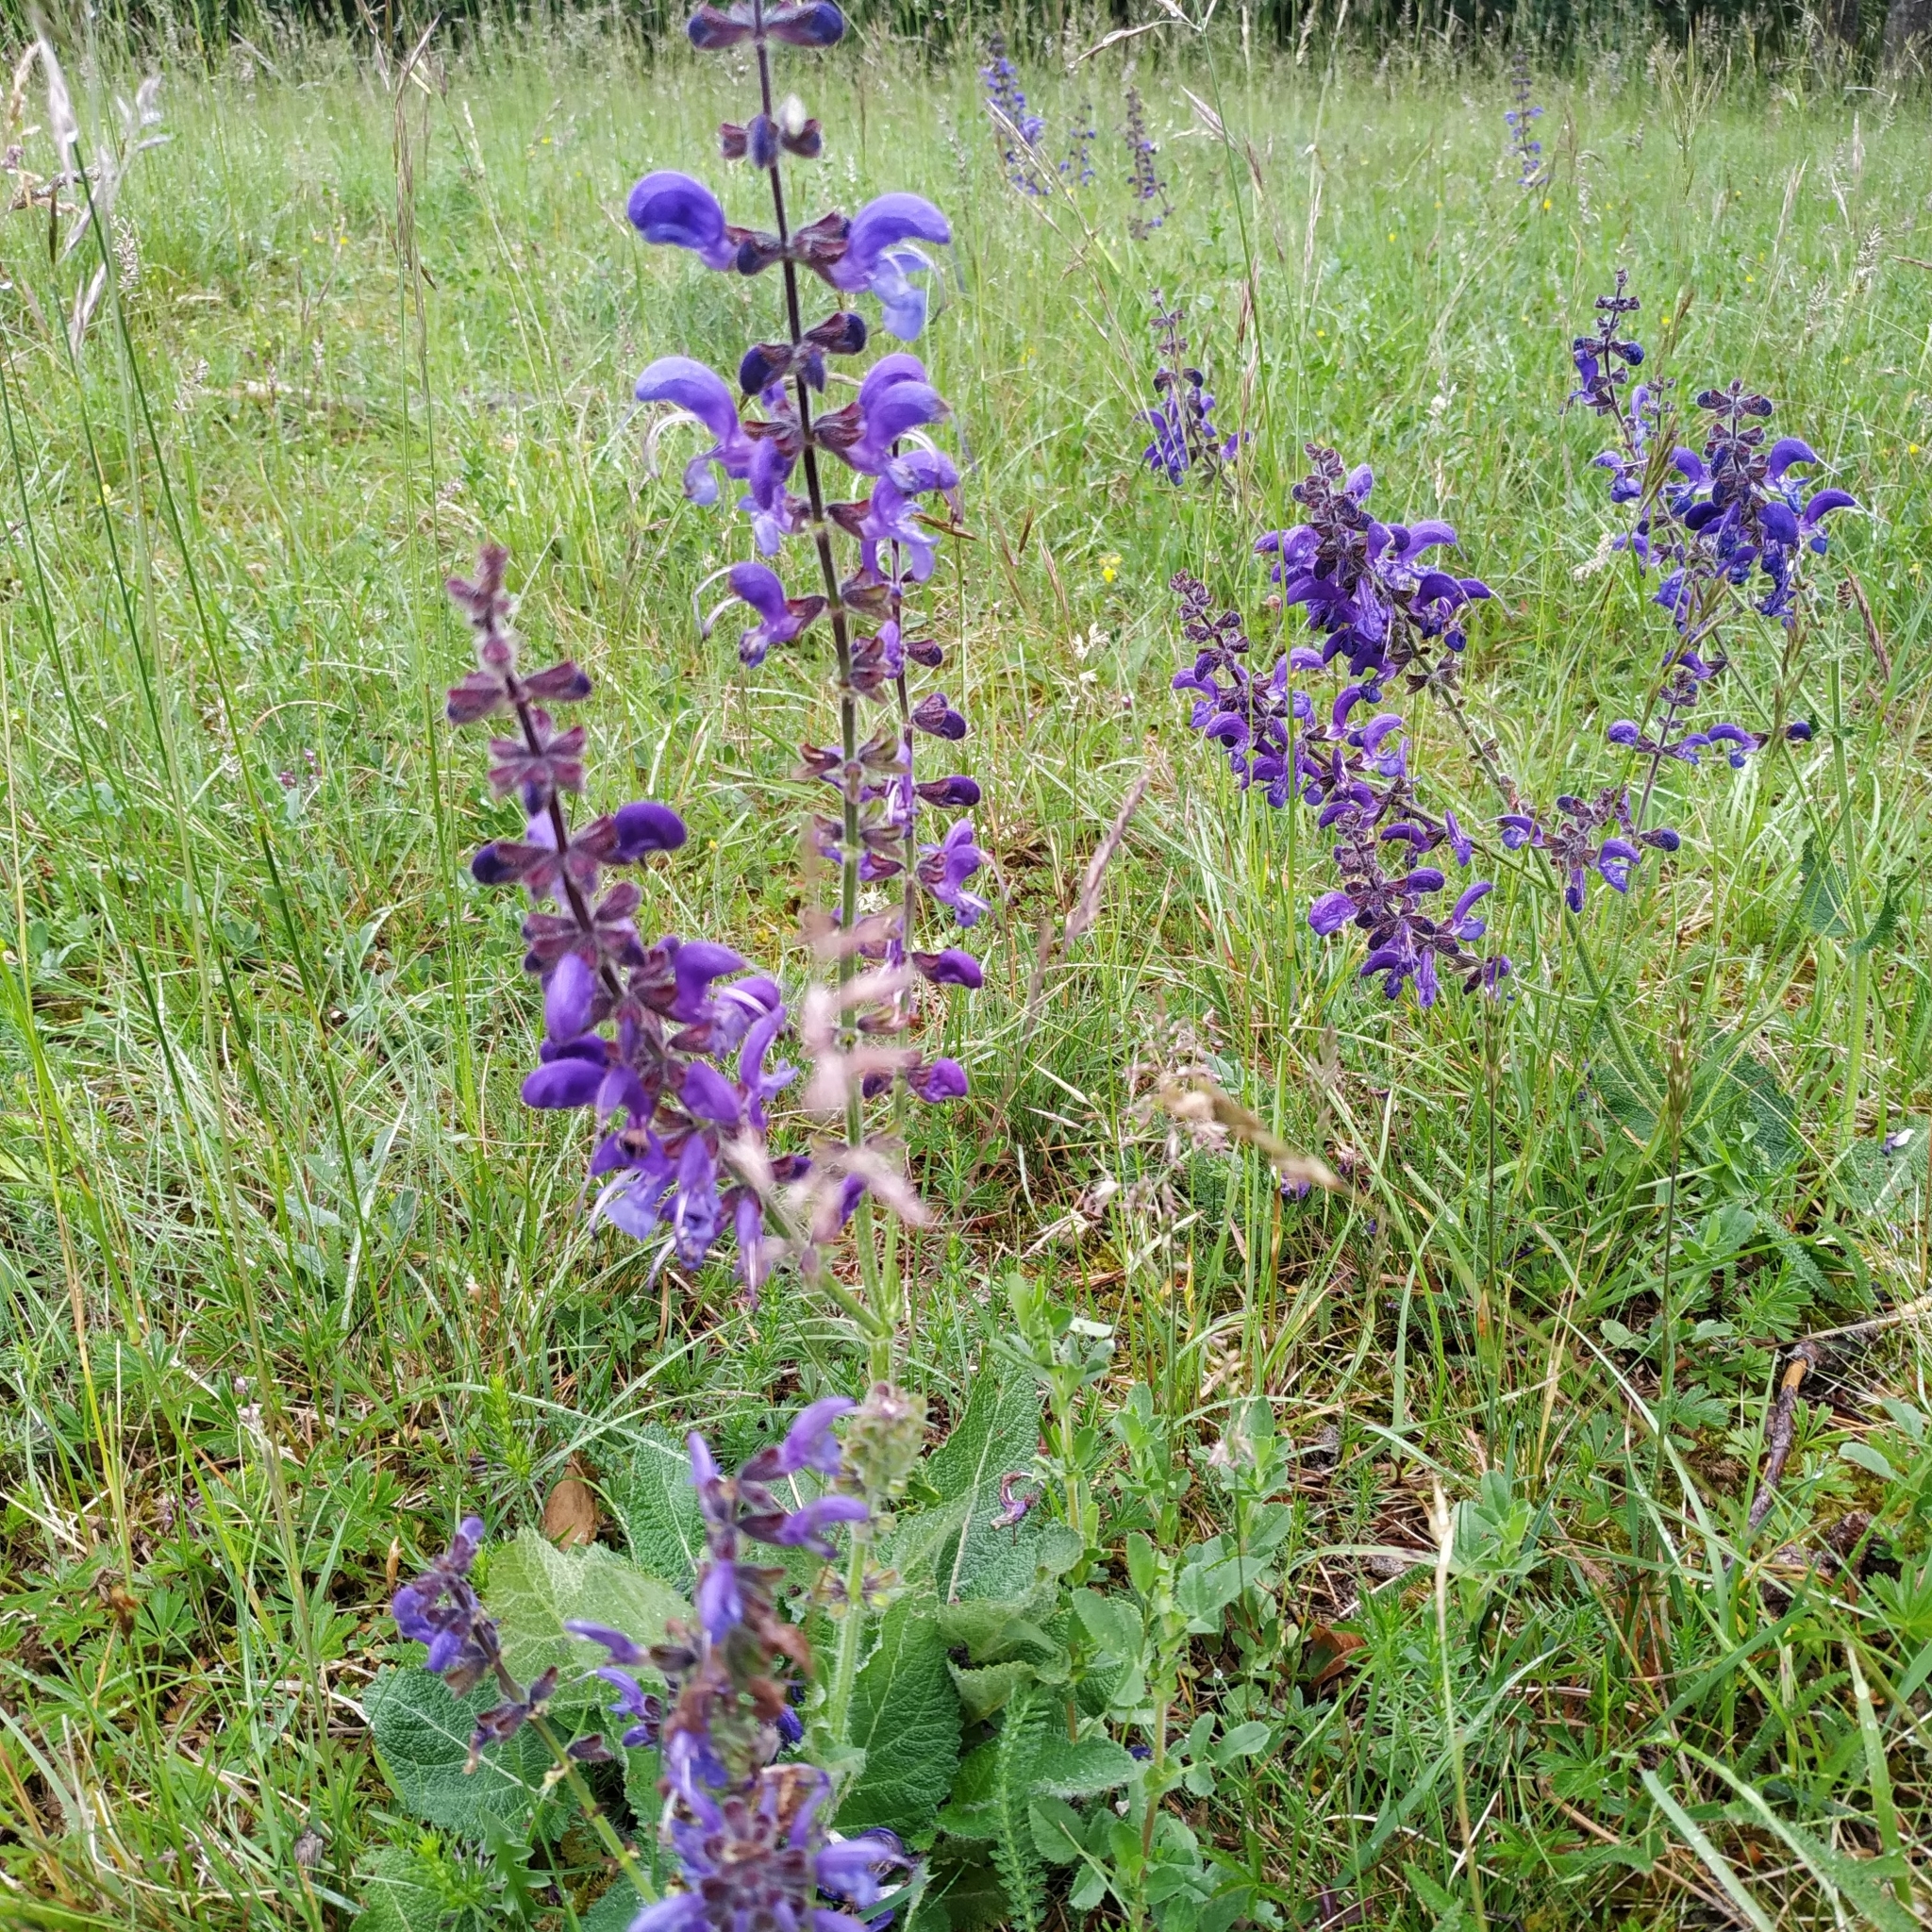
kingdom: Plantae
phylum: Tracheophyta
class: Magnoliopsida
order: Lamiales
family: Lamiaceae
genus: Salvia
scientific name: Salvia pratensis
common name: Meadow sage
